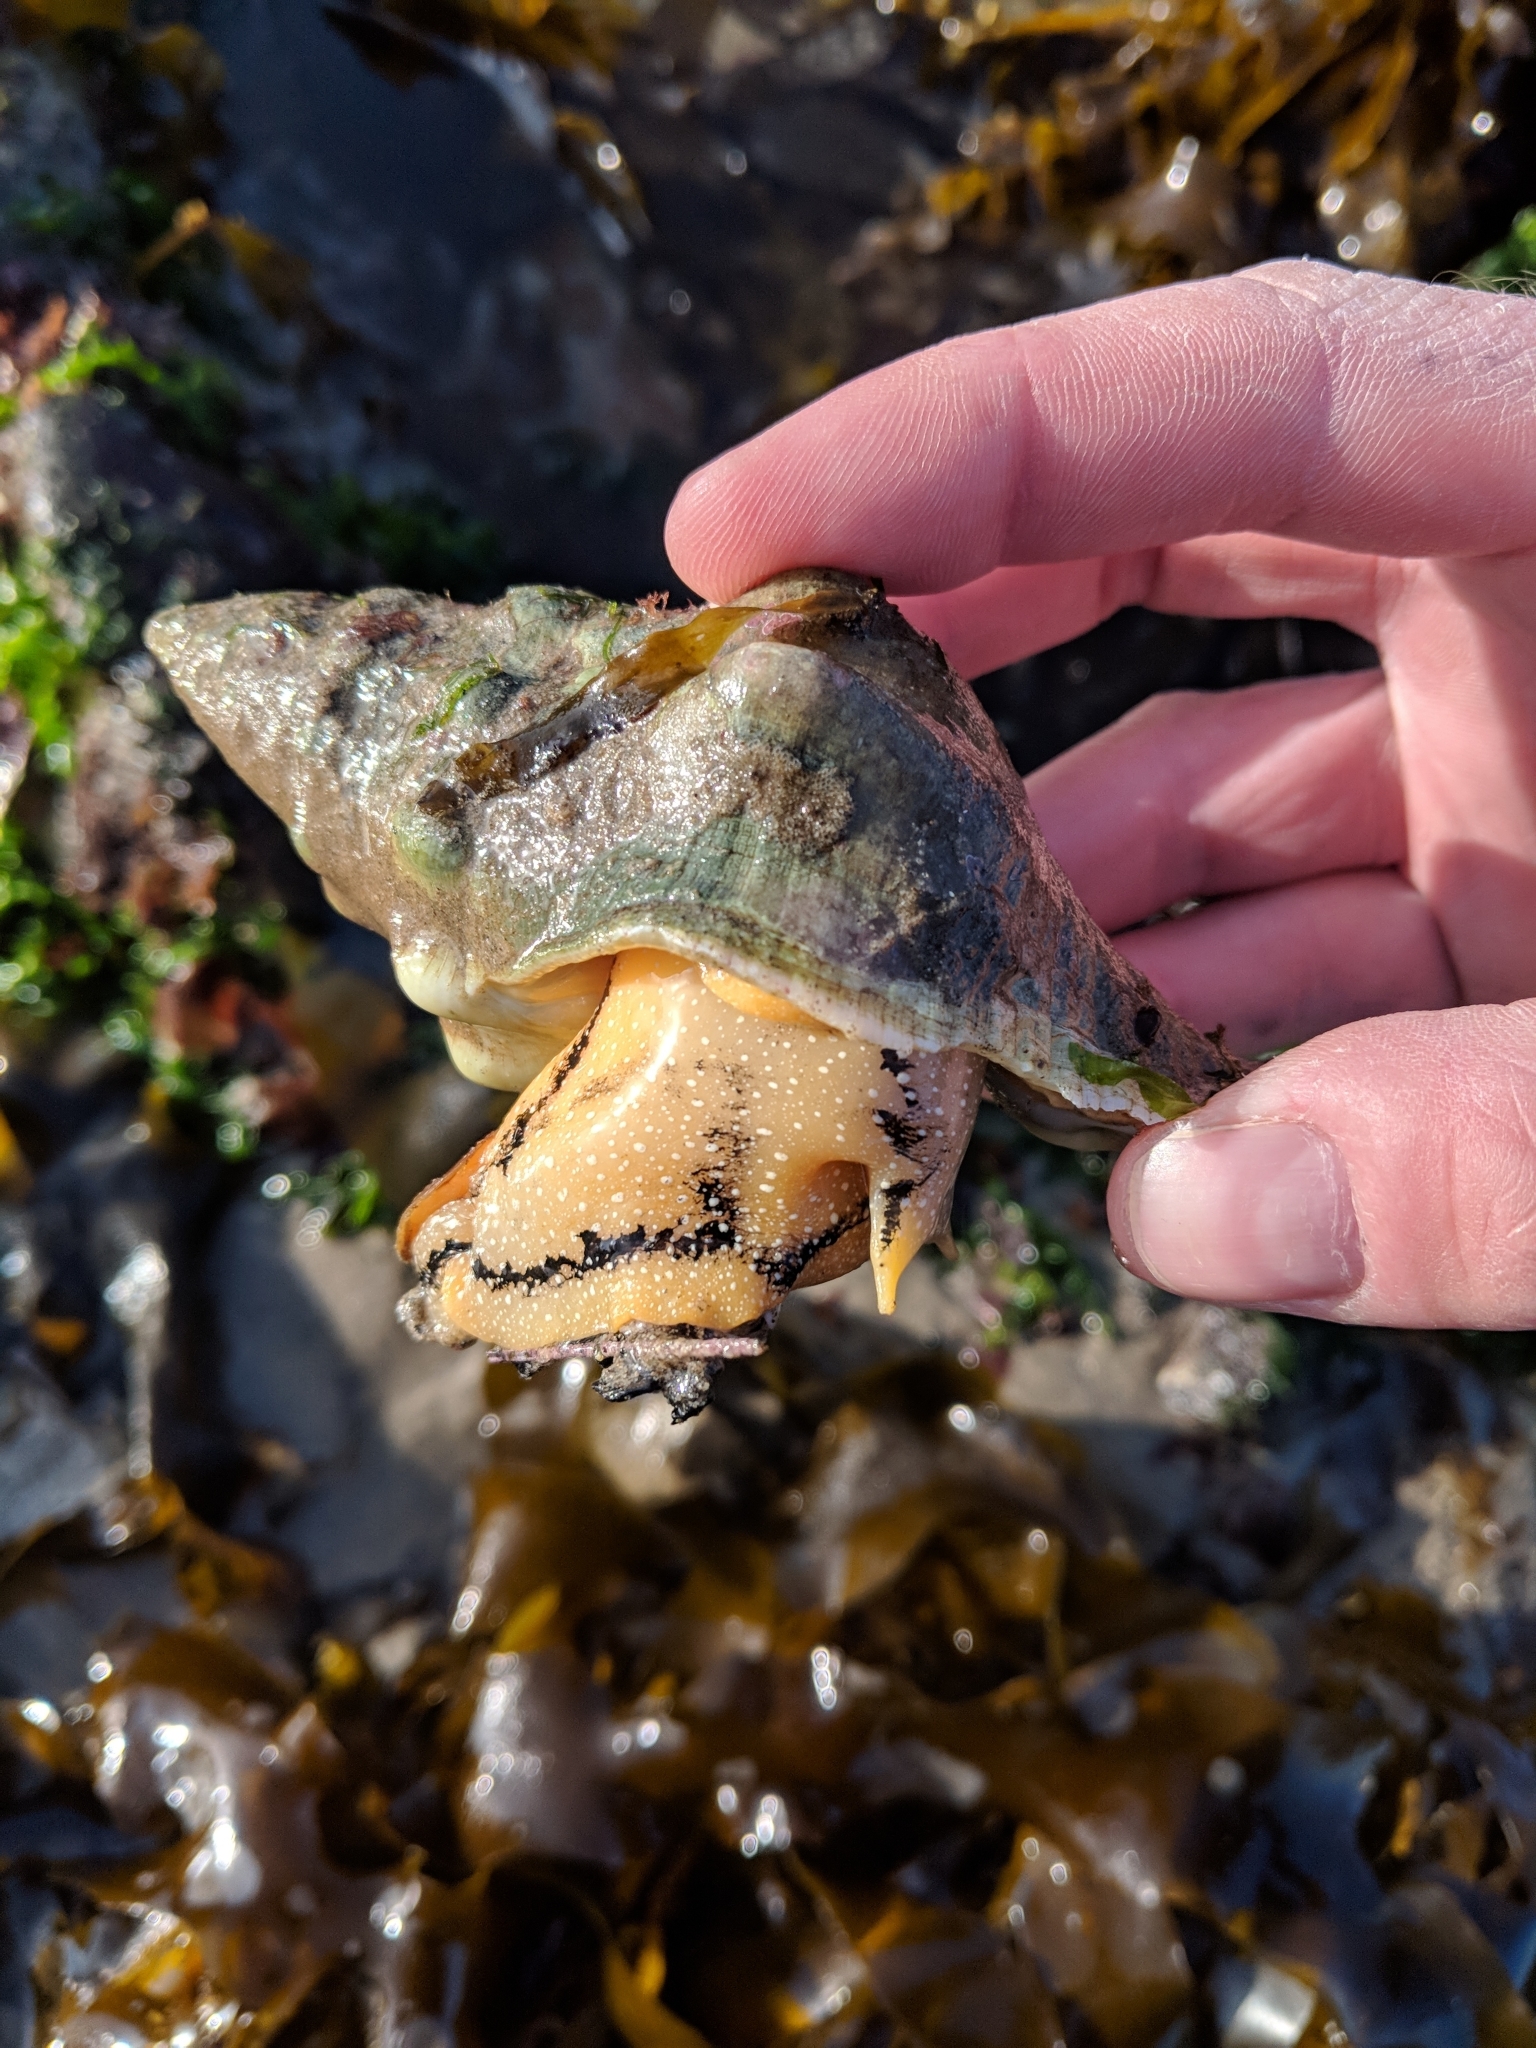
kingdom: Animalia
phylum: Mollusca
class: Gastropoda
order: Neogastropoda
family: Austrosiphonidae
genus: Kelletia
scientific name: Kelletia kelletii
